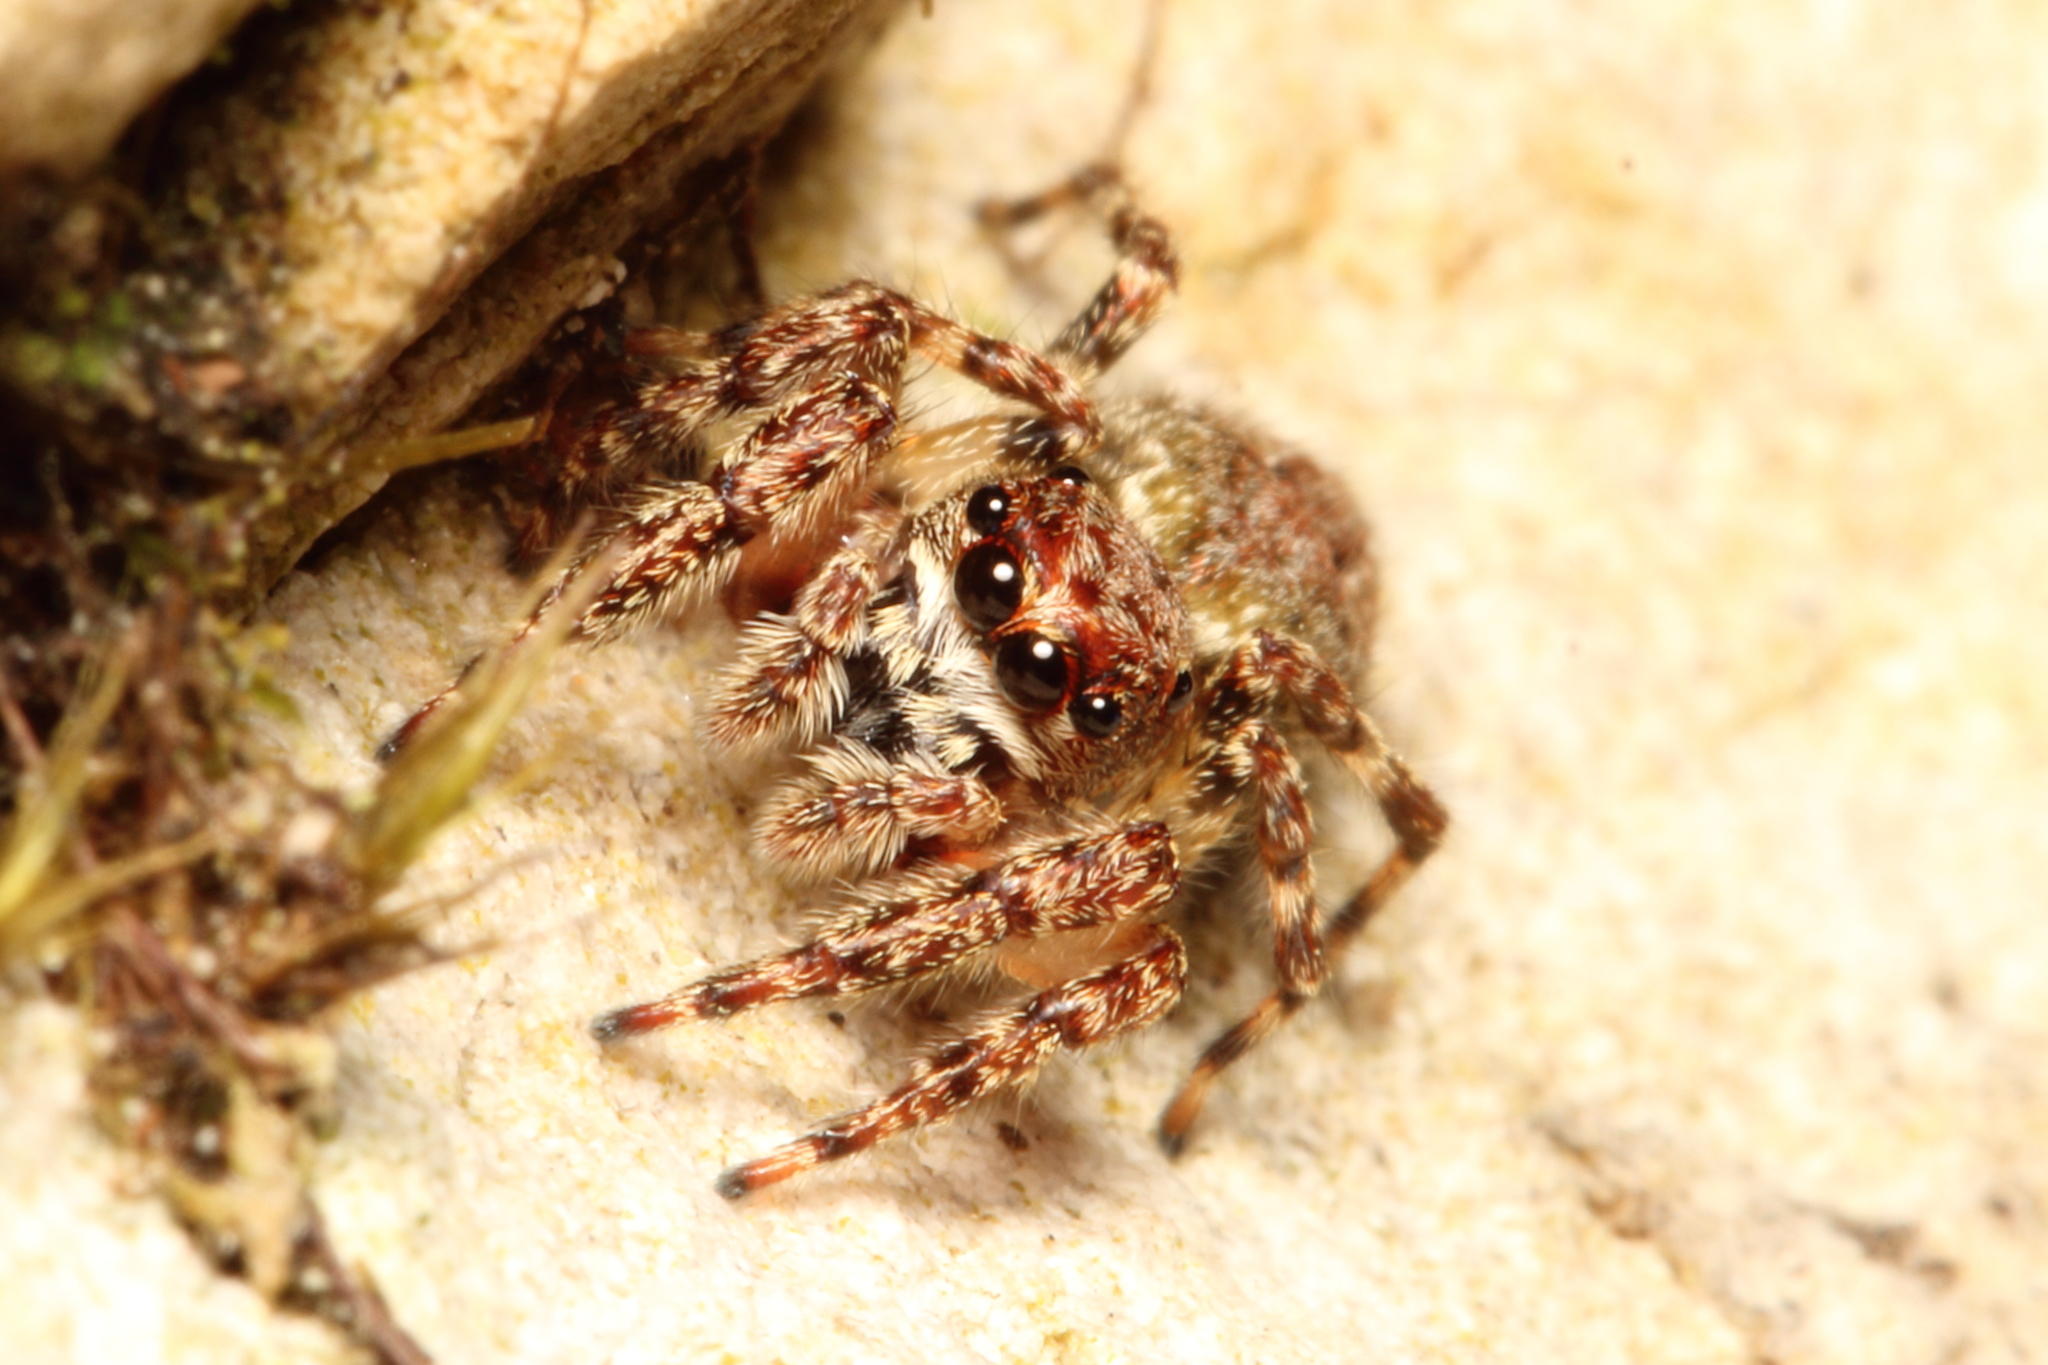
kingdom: Animalia
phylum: Arthropoda
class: Arachnida
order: Araneae
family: Salticidae
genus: Hinewaia
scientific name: Hinewaia embolica
